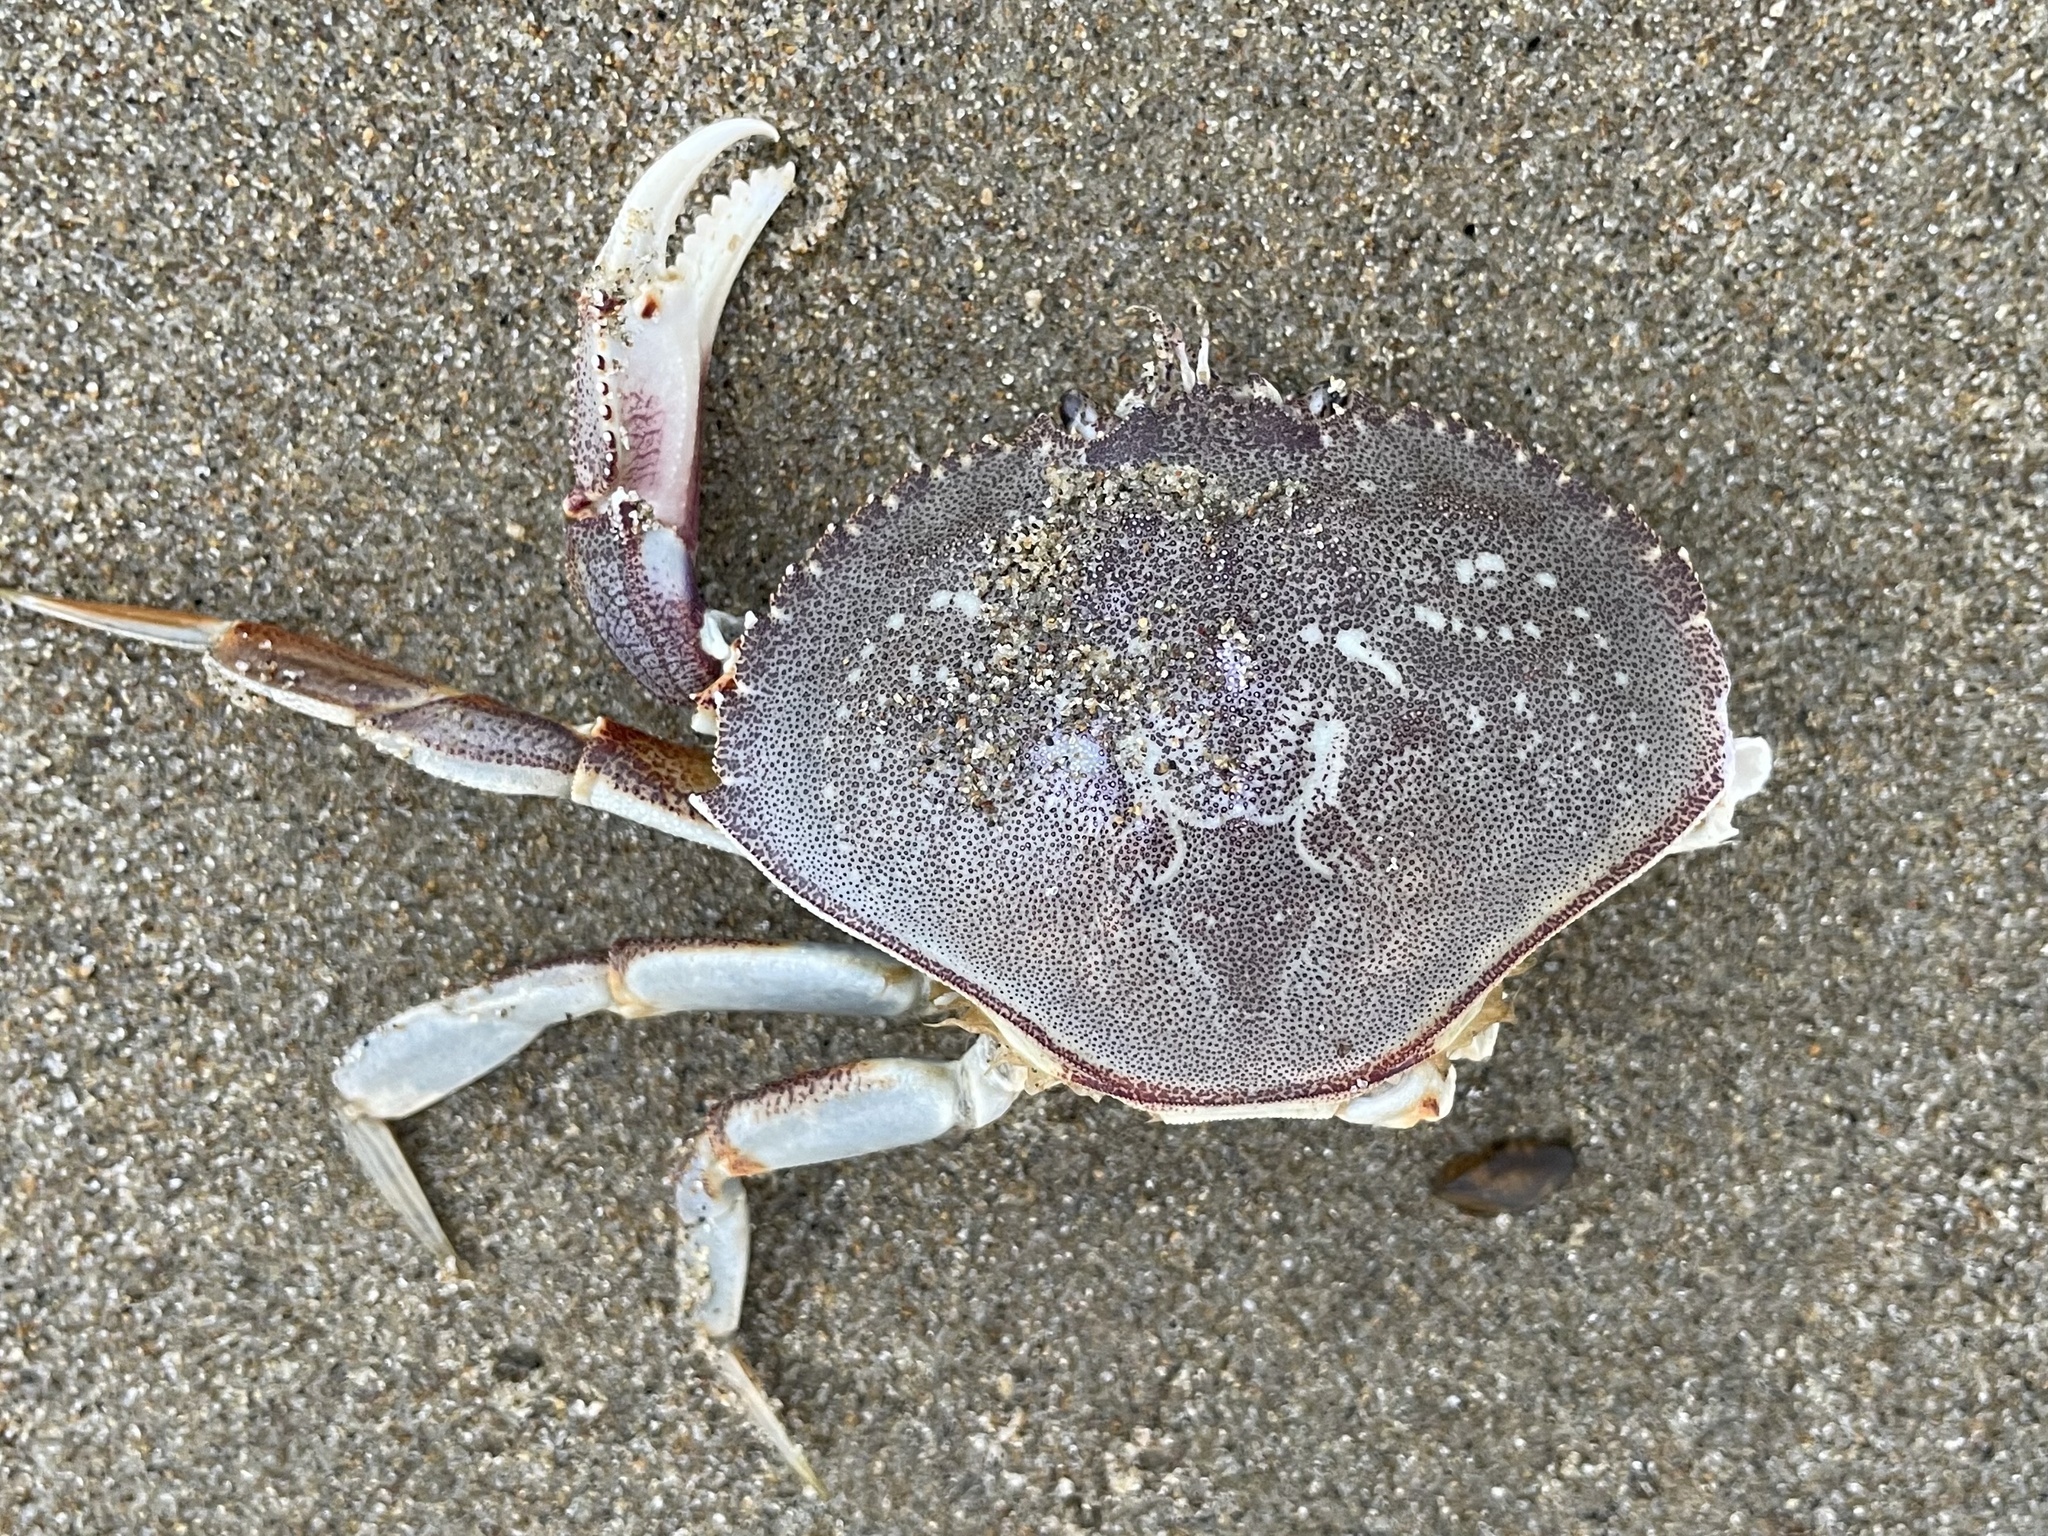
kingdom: Animalia
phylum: Arthropoda
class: Malacostraca
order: Decapoda
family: Cancridae
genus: Metacarcinus
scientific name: Metacarcinus magister
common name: Californian crab
